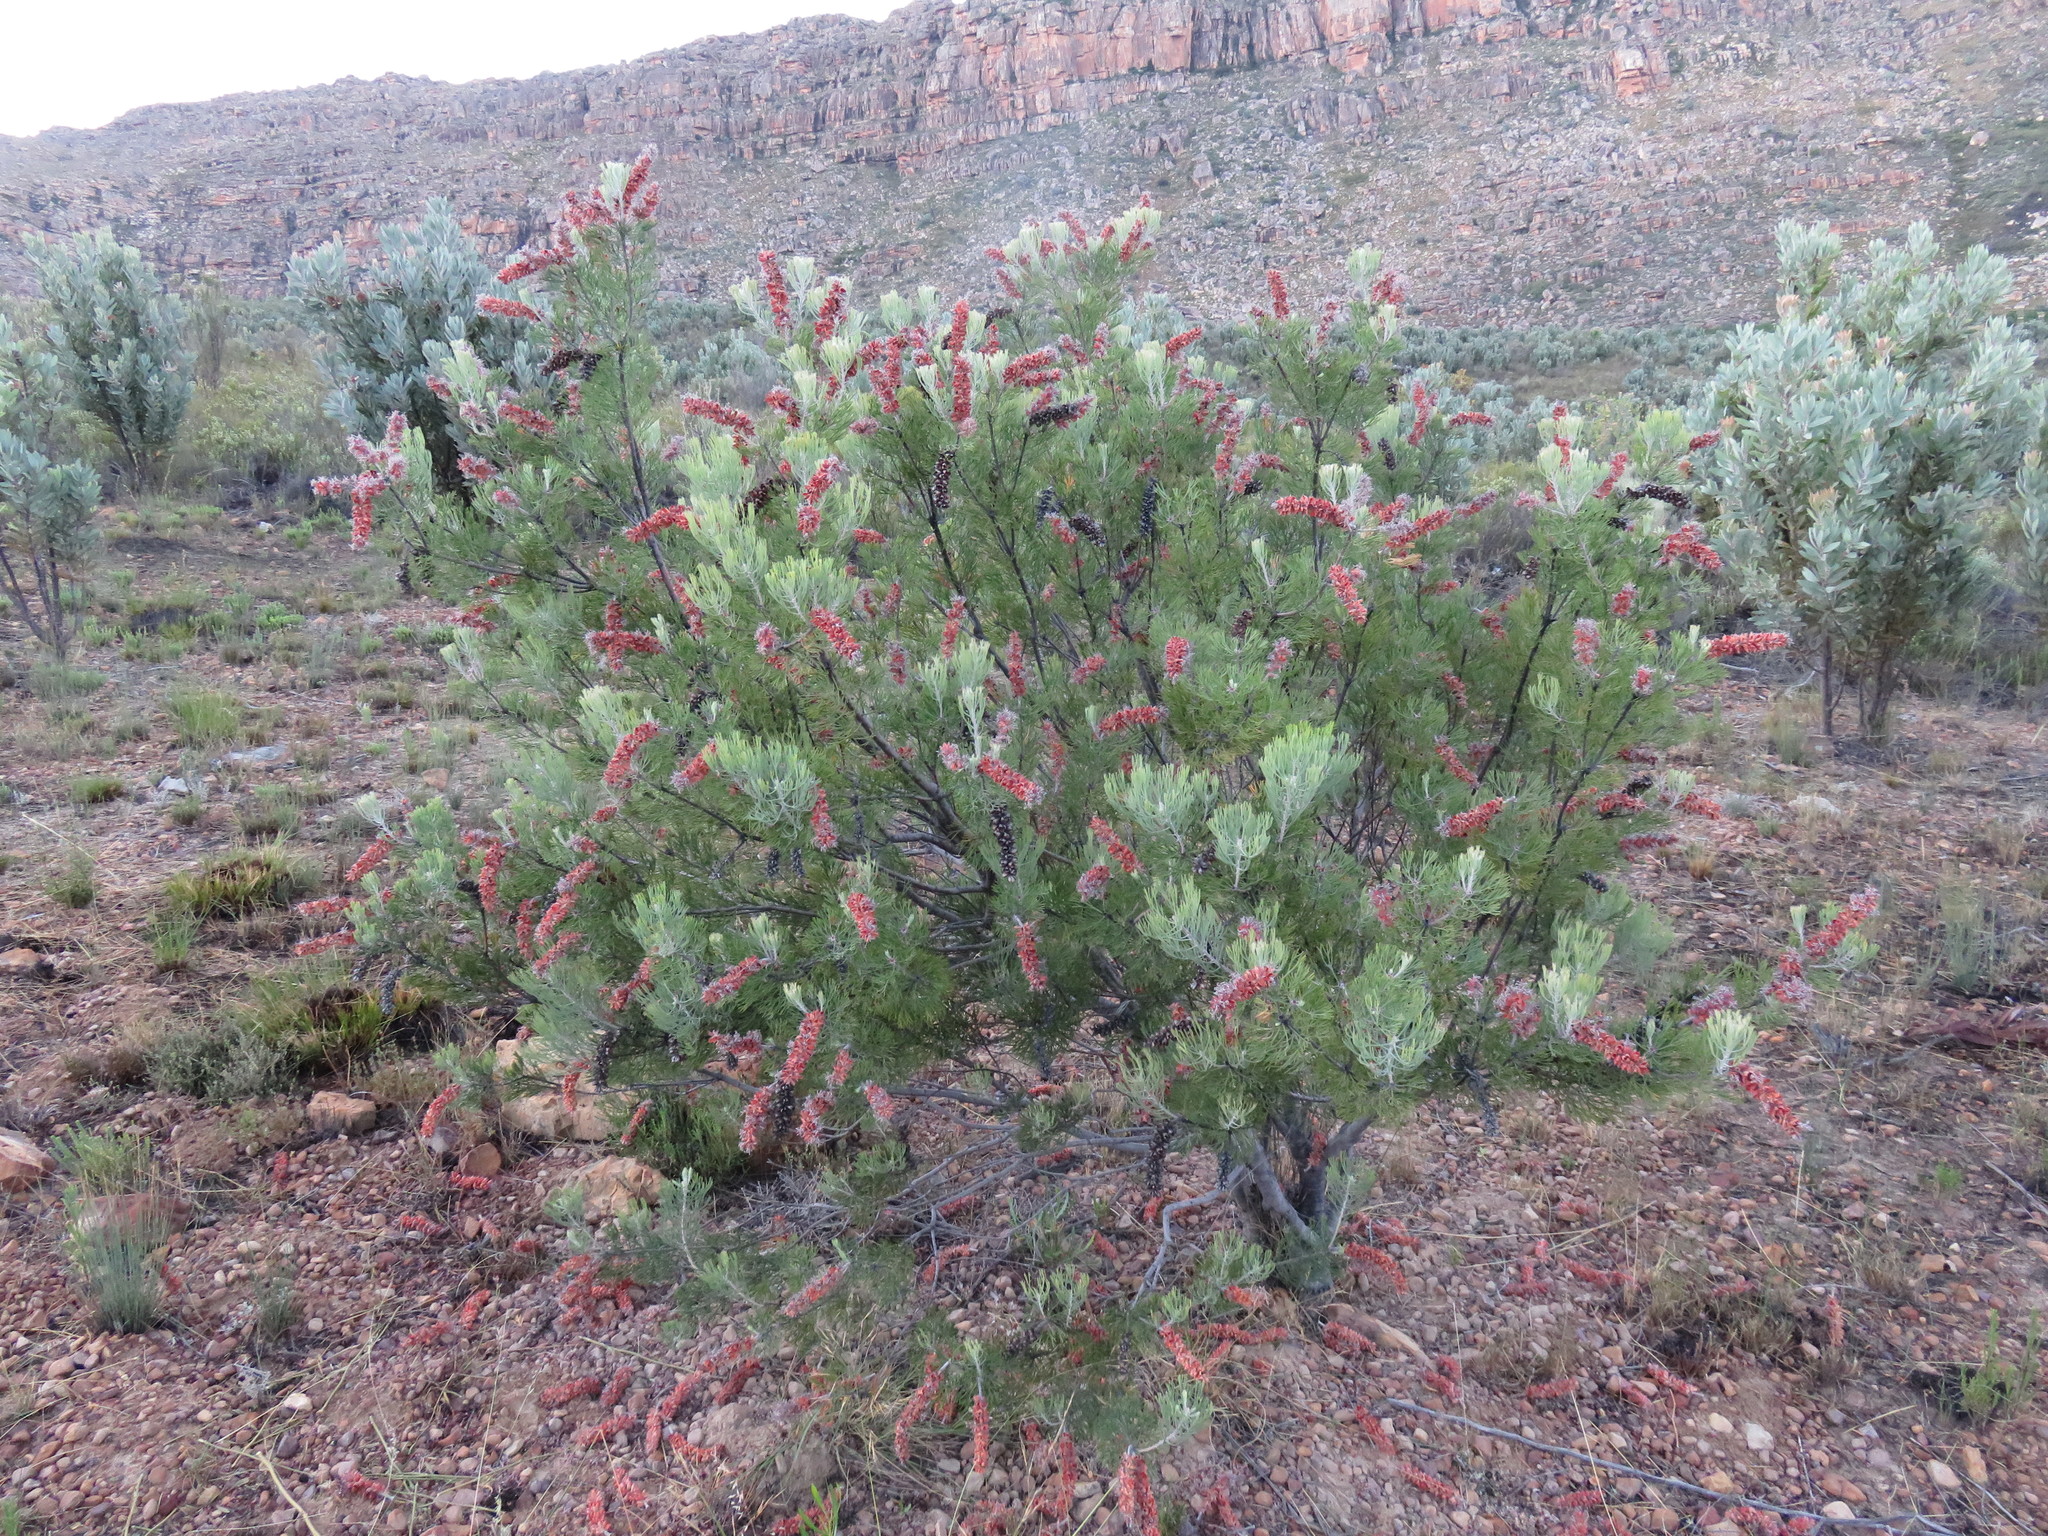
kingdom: Plantae
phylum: Tracheophyta
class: Magnoliopsida
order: Proteales
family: Proteaceae
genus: Paranomus
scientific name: Paranomus bracteolaris
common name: Bokkeveld tree sceptre
